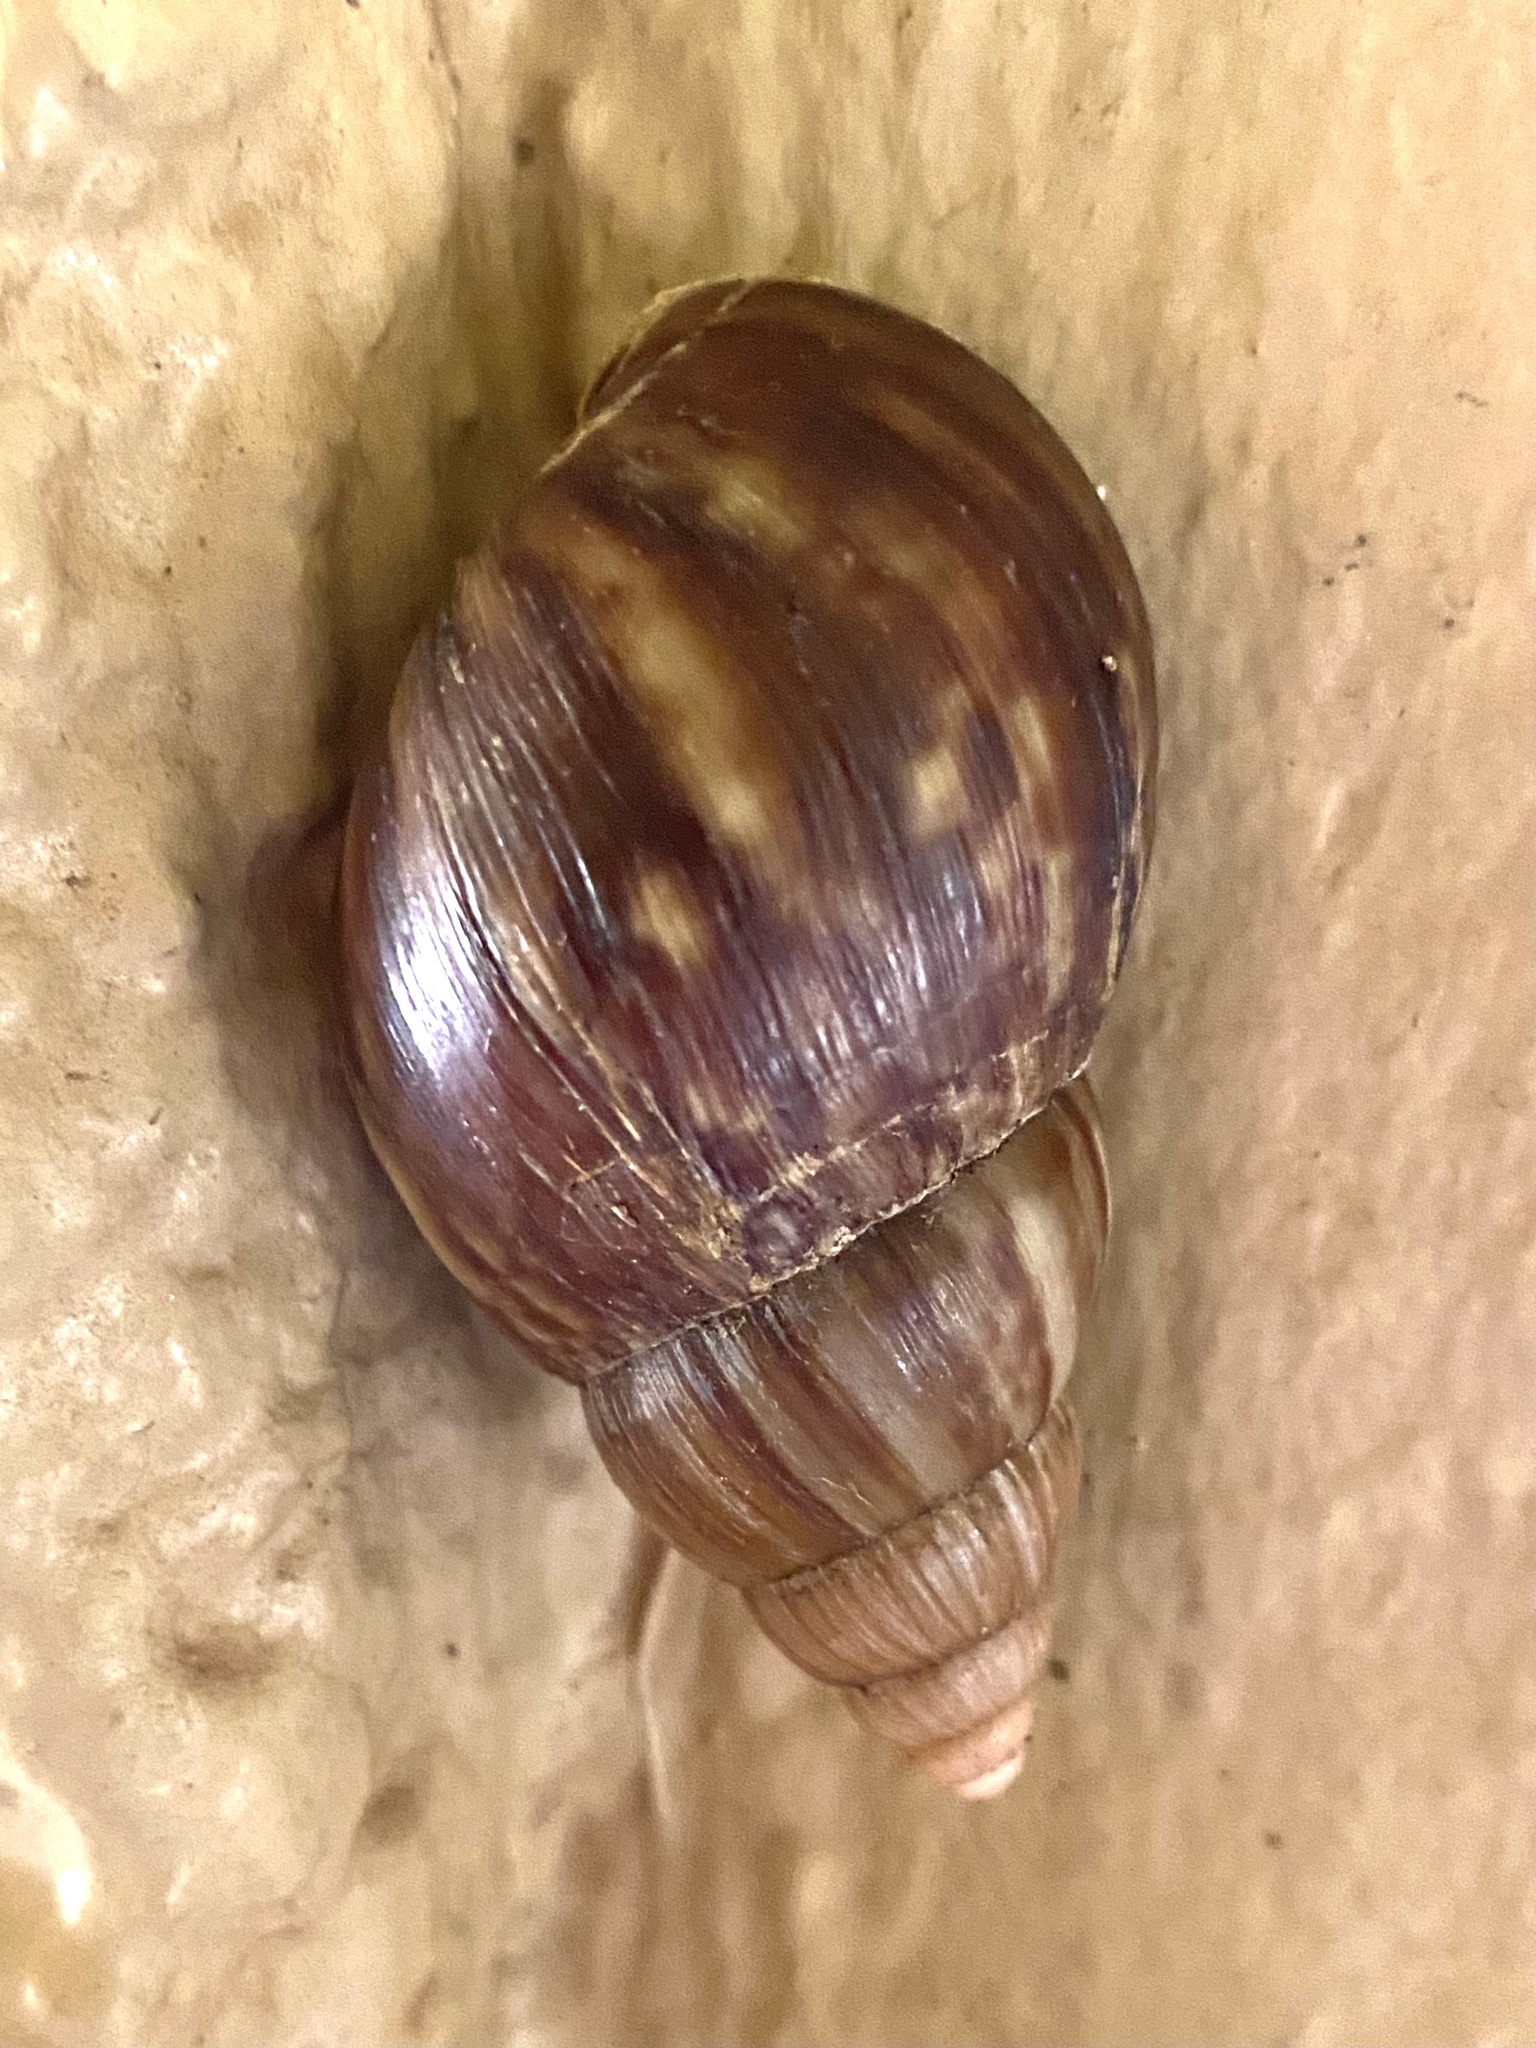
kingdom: Animalia
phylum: Mollusca
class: Gastropoda
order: Stylommatophora
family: Achatinidae
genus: Lissachatina
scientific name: Lissachatina fulica
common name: Giant african snail
